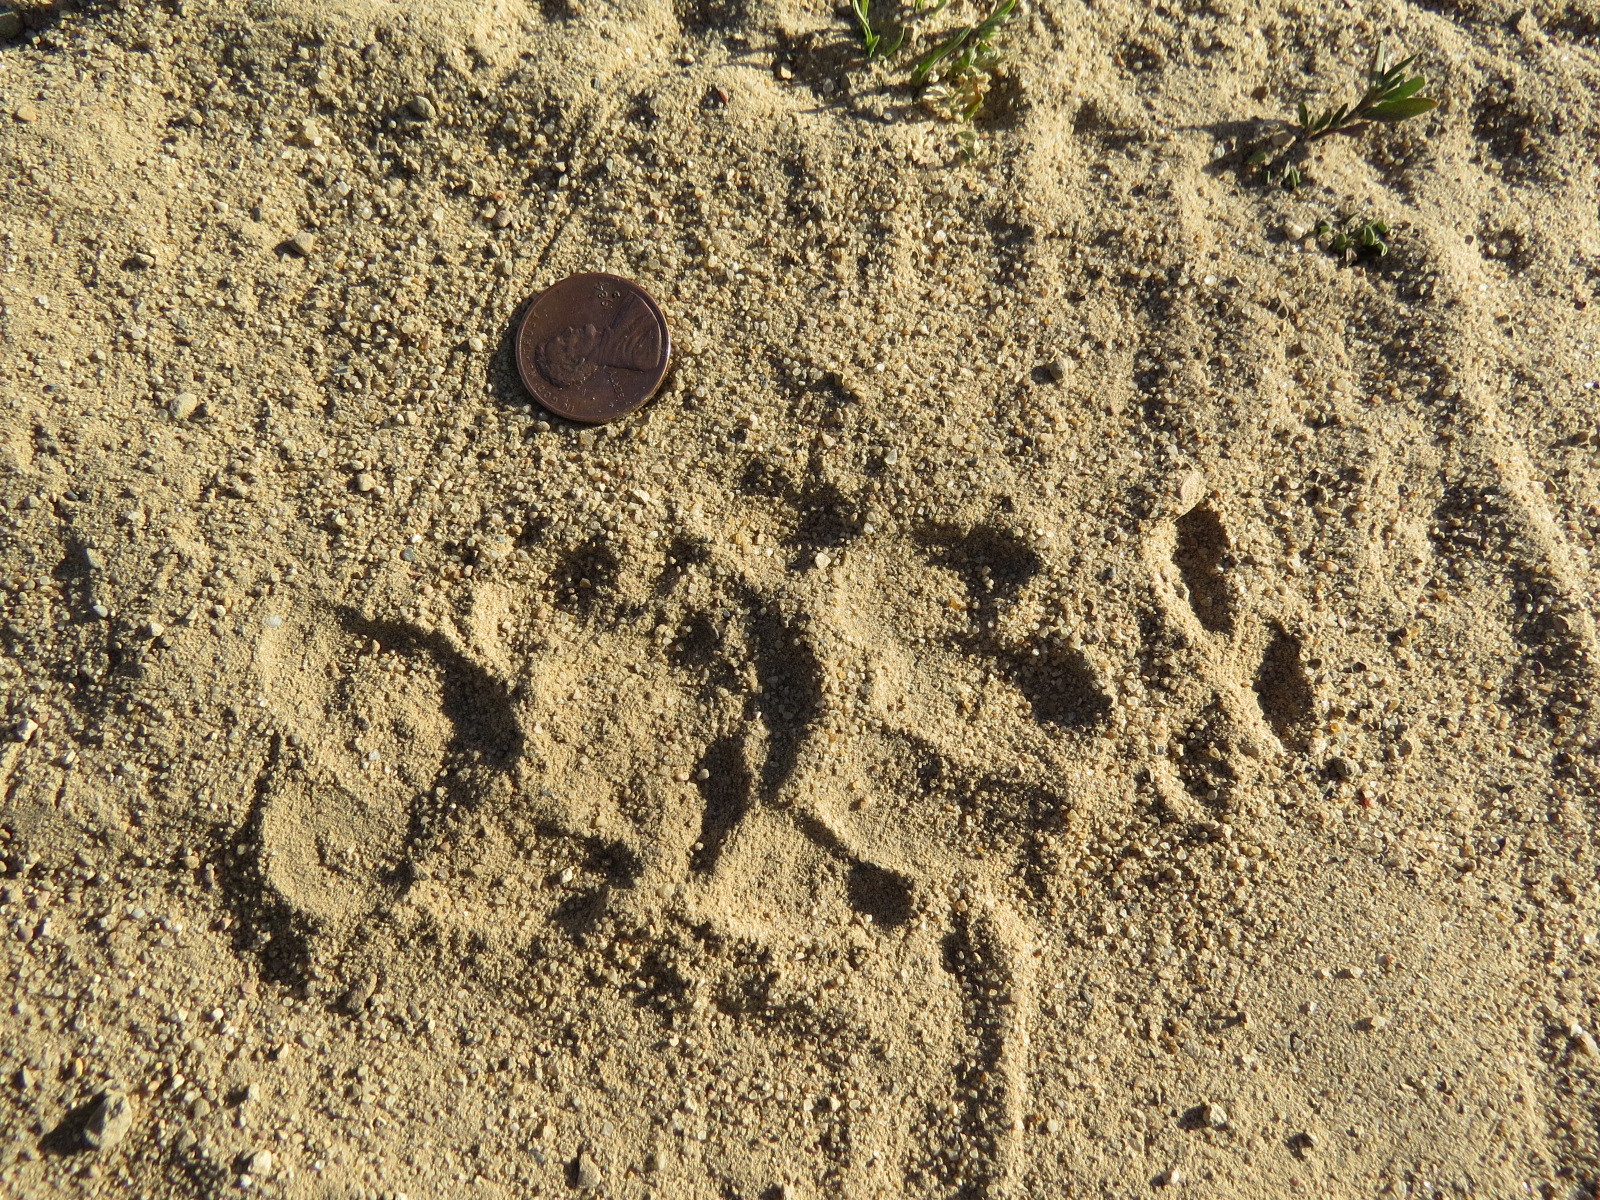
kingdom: Animalia
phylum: Chordata
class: Mammalia
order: Carnivora
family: Mustelidae
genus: Taxidea
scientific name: Taxidea taxus
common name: American badger
